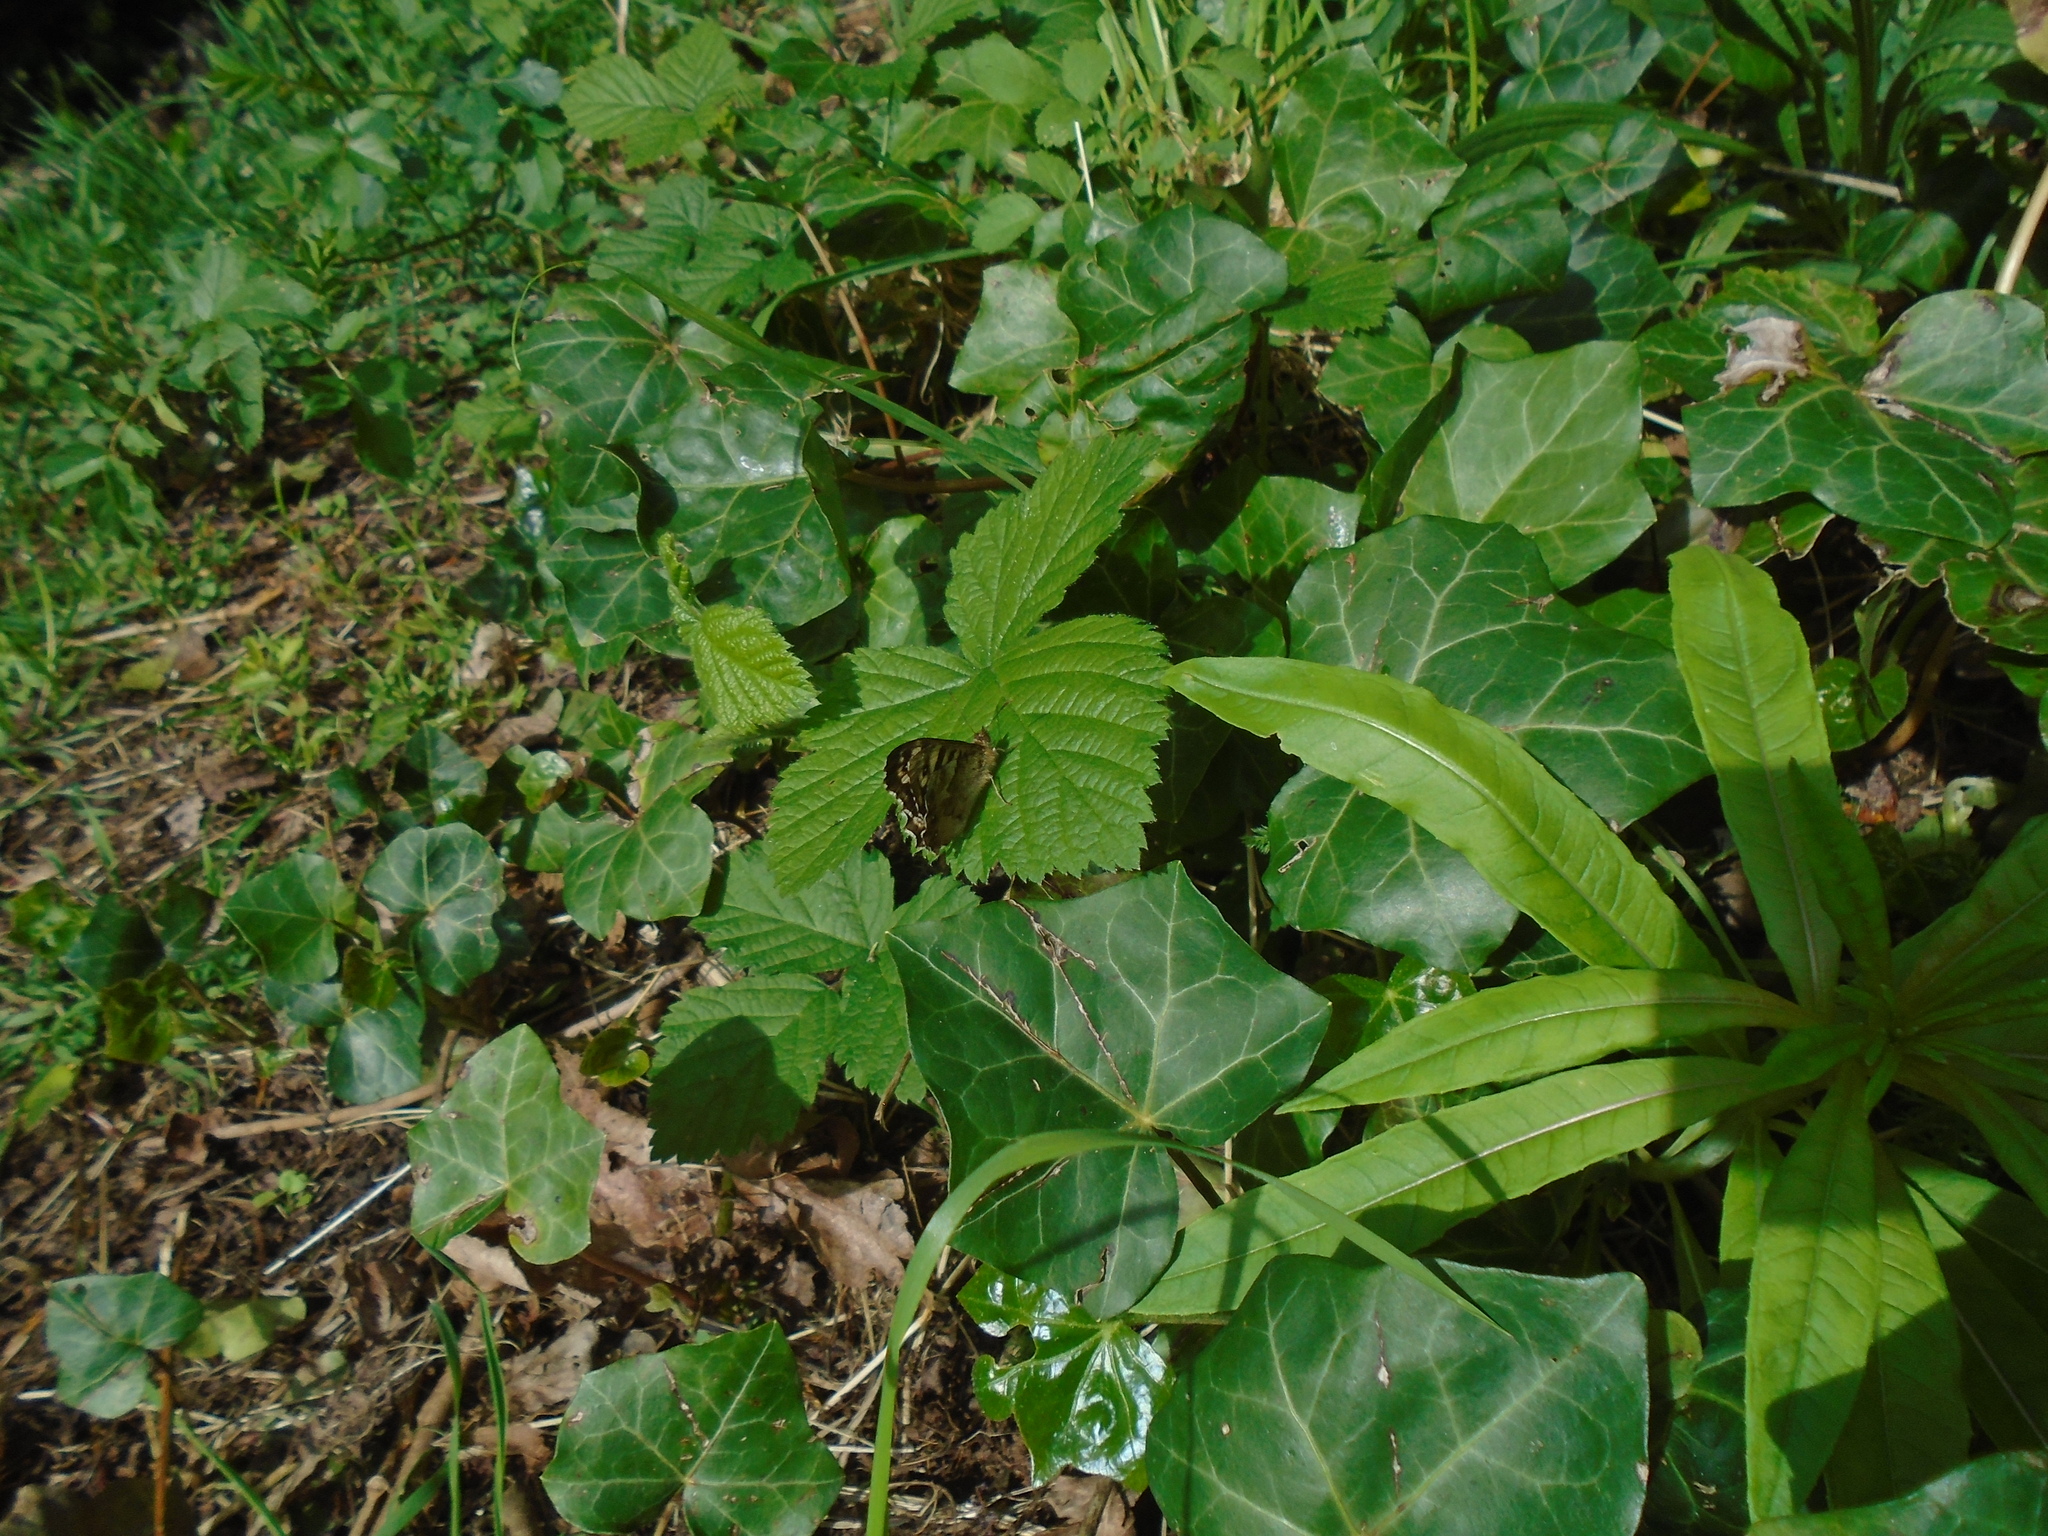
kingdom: Animalia
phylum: Arthropoda
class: Insecta
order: Lepidoptera
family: Nymphalidae
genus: Pararge
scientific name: Pararge aegeria
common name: Speckled wood
